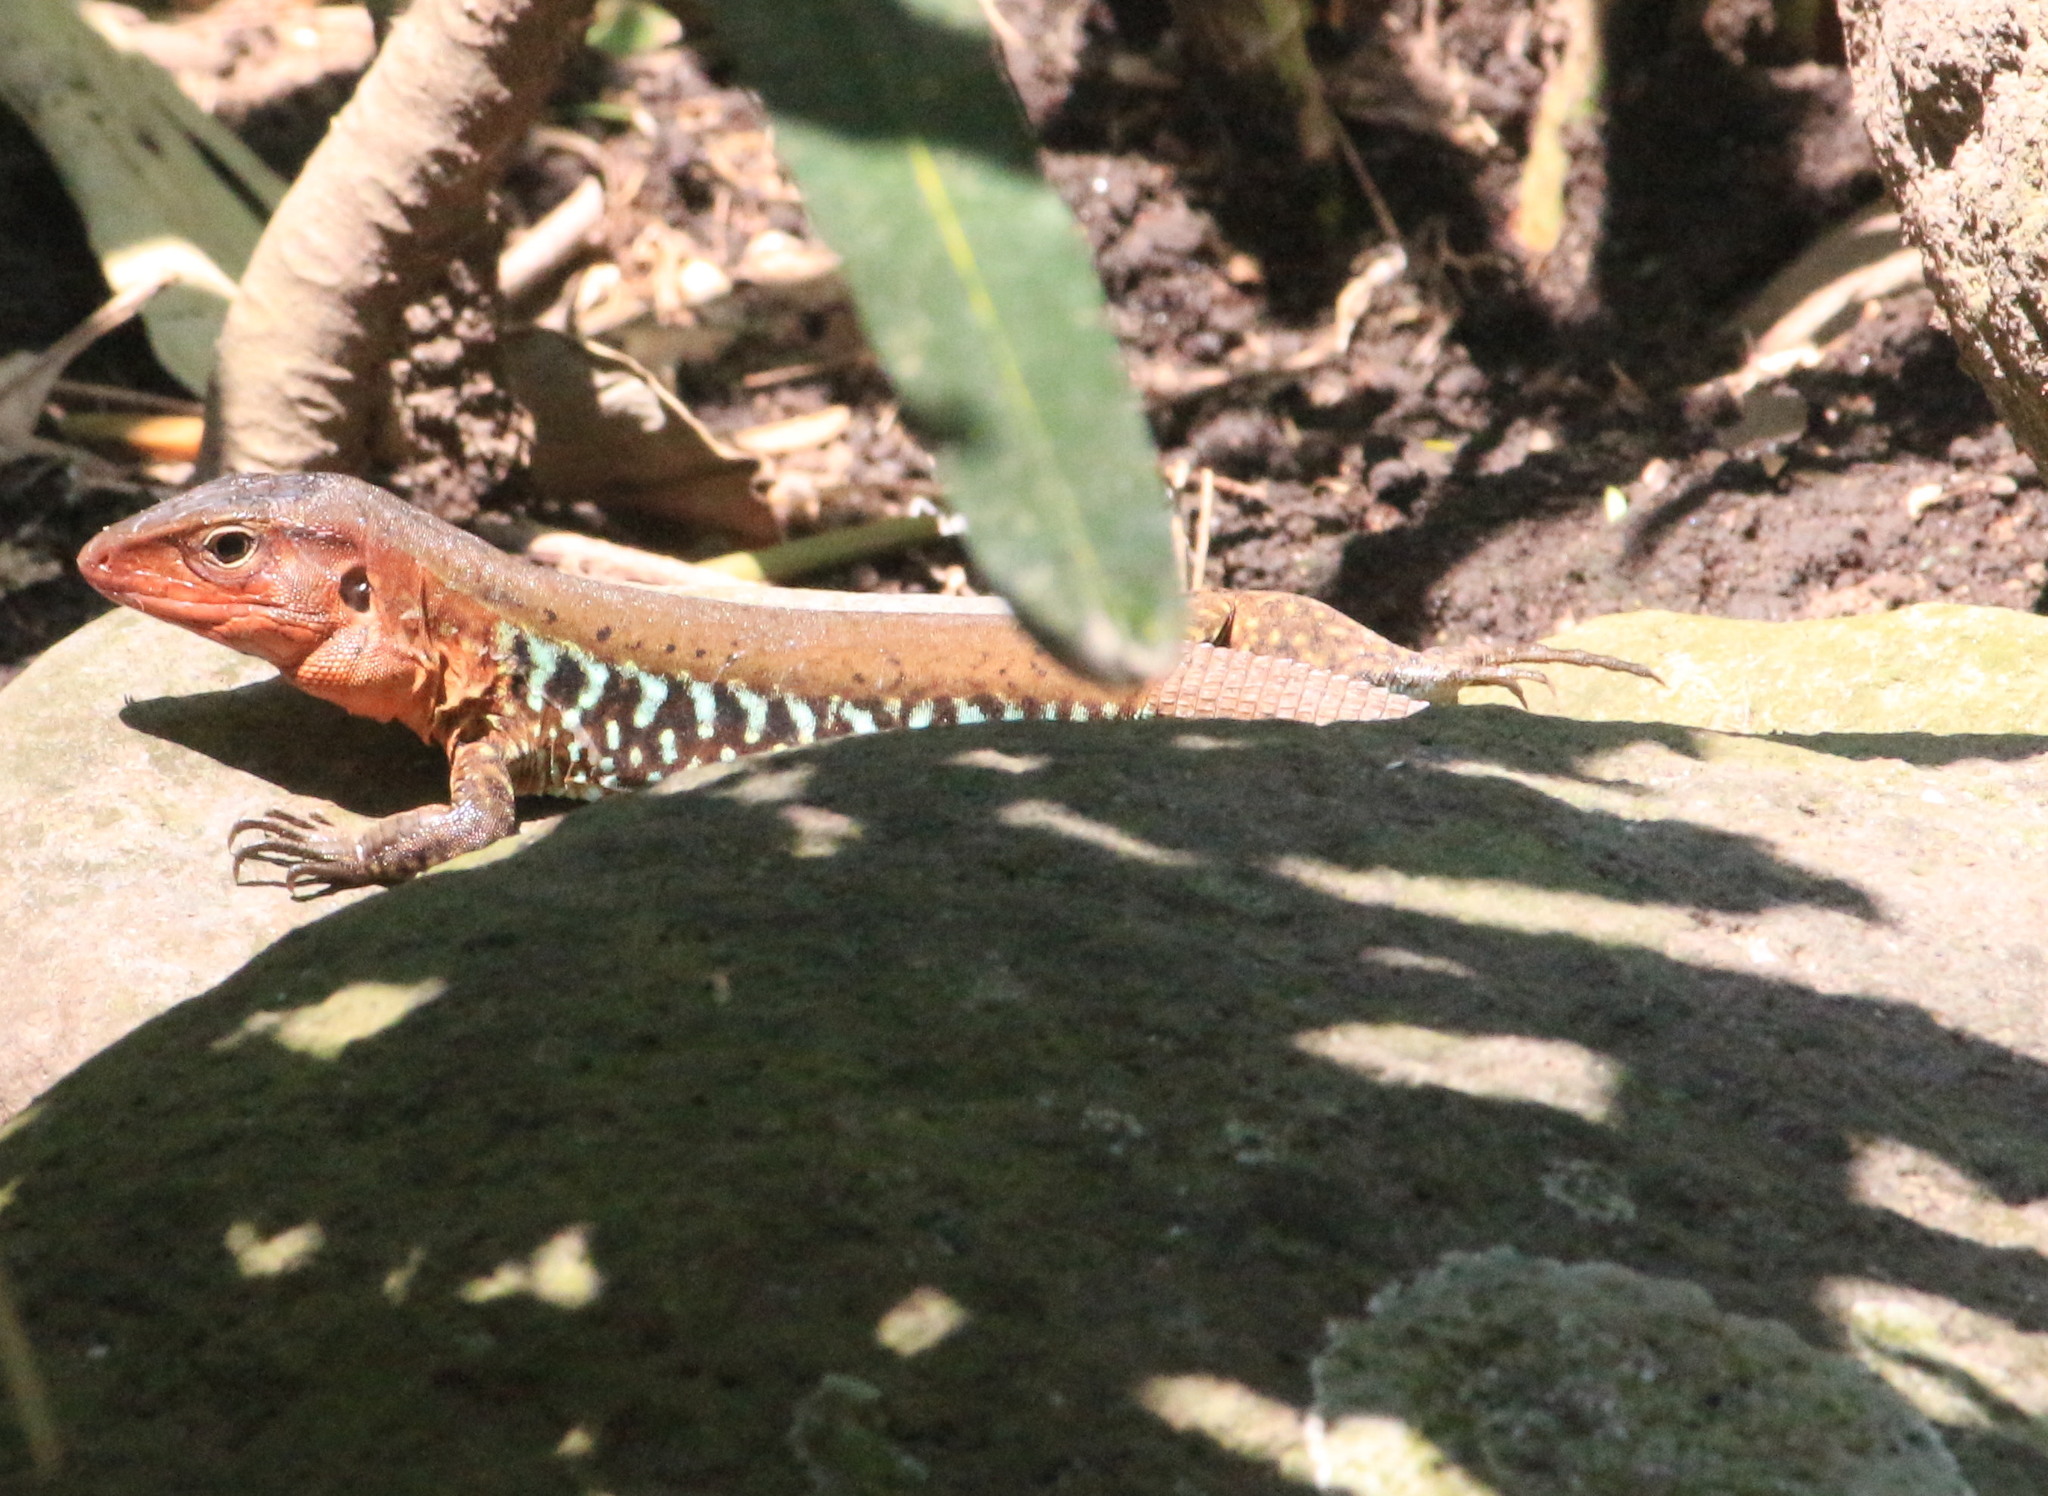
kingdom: Animalia
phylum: Chordata
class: Squamata
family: Teiidae
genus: Holcosus
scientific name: Holcosus undulatus
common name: Rainbow ameiva
